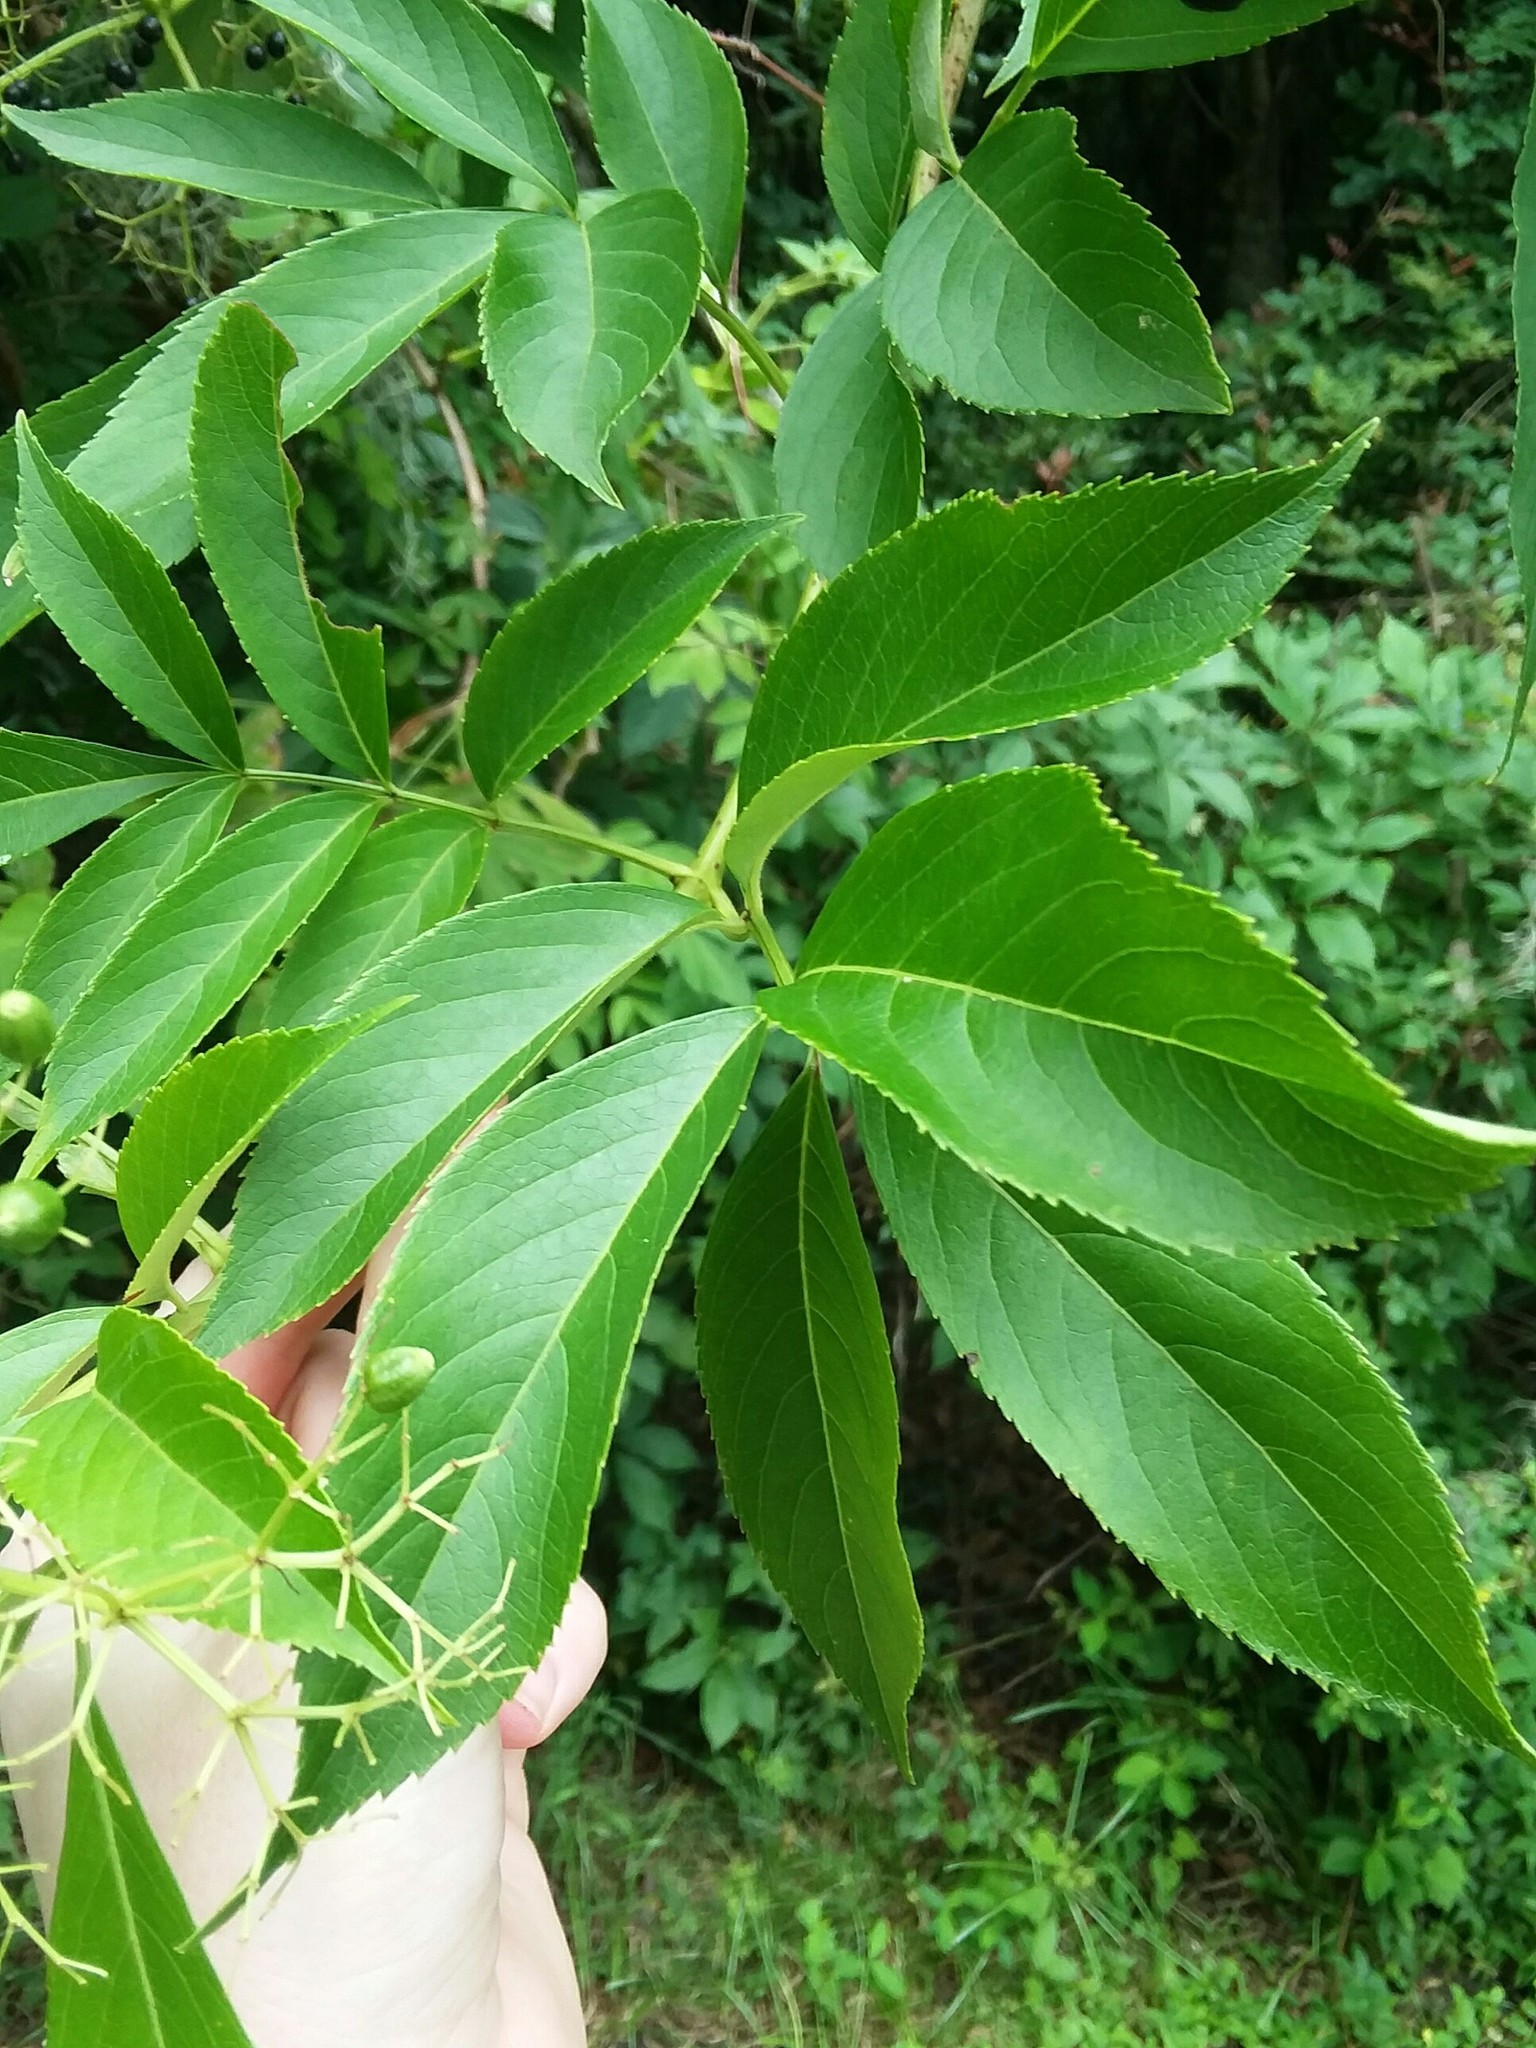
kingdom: Plantae
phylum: Tracheophyta
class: Magnoliopsida
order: Dipsacales
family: Viburnaceae
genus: Sambucus
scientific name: Sambucus canadensis
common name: American elder
